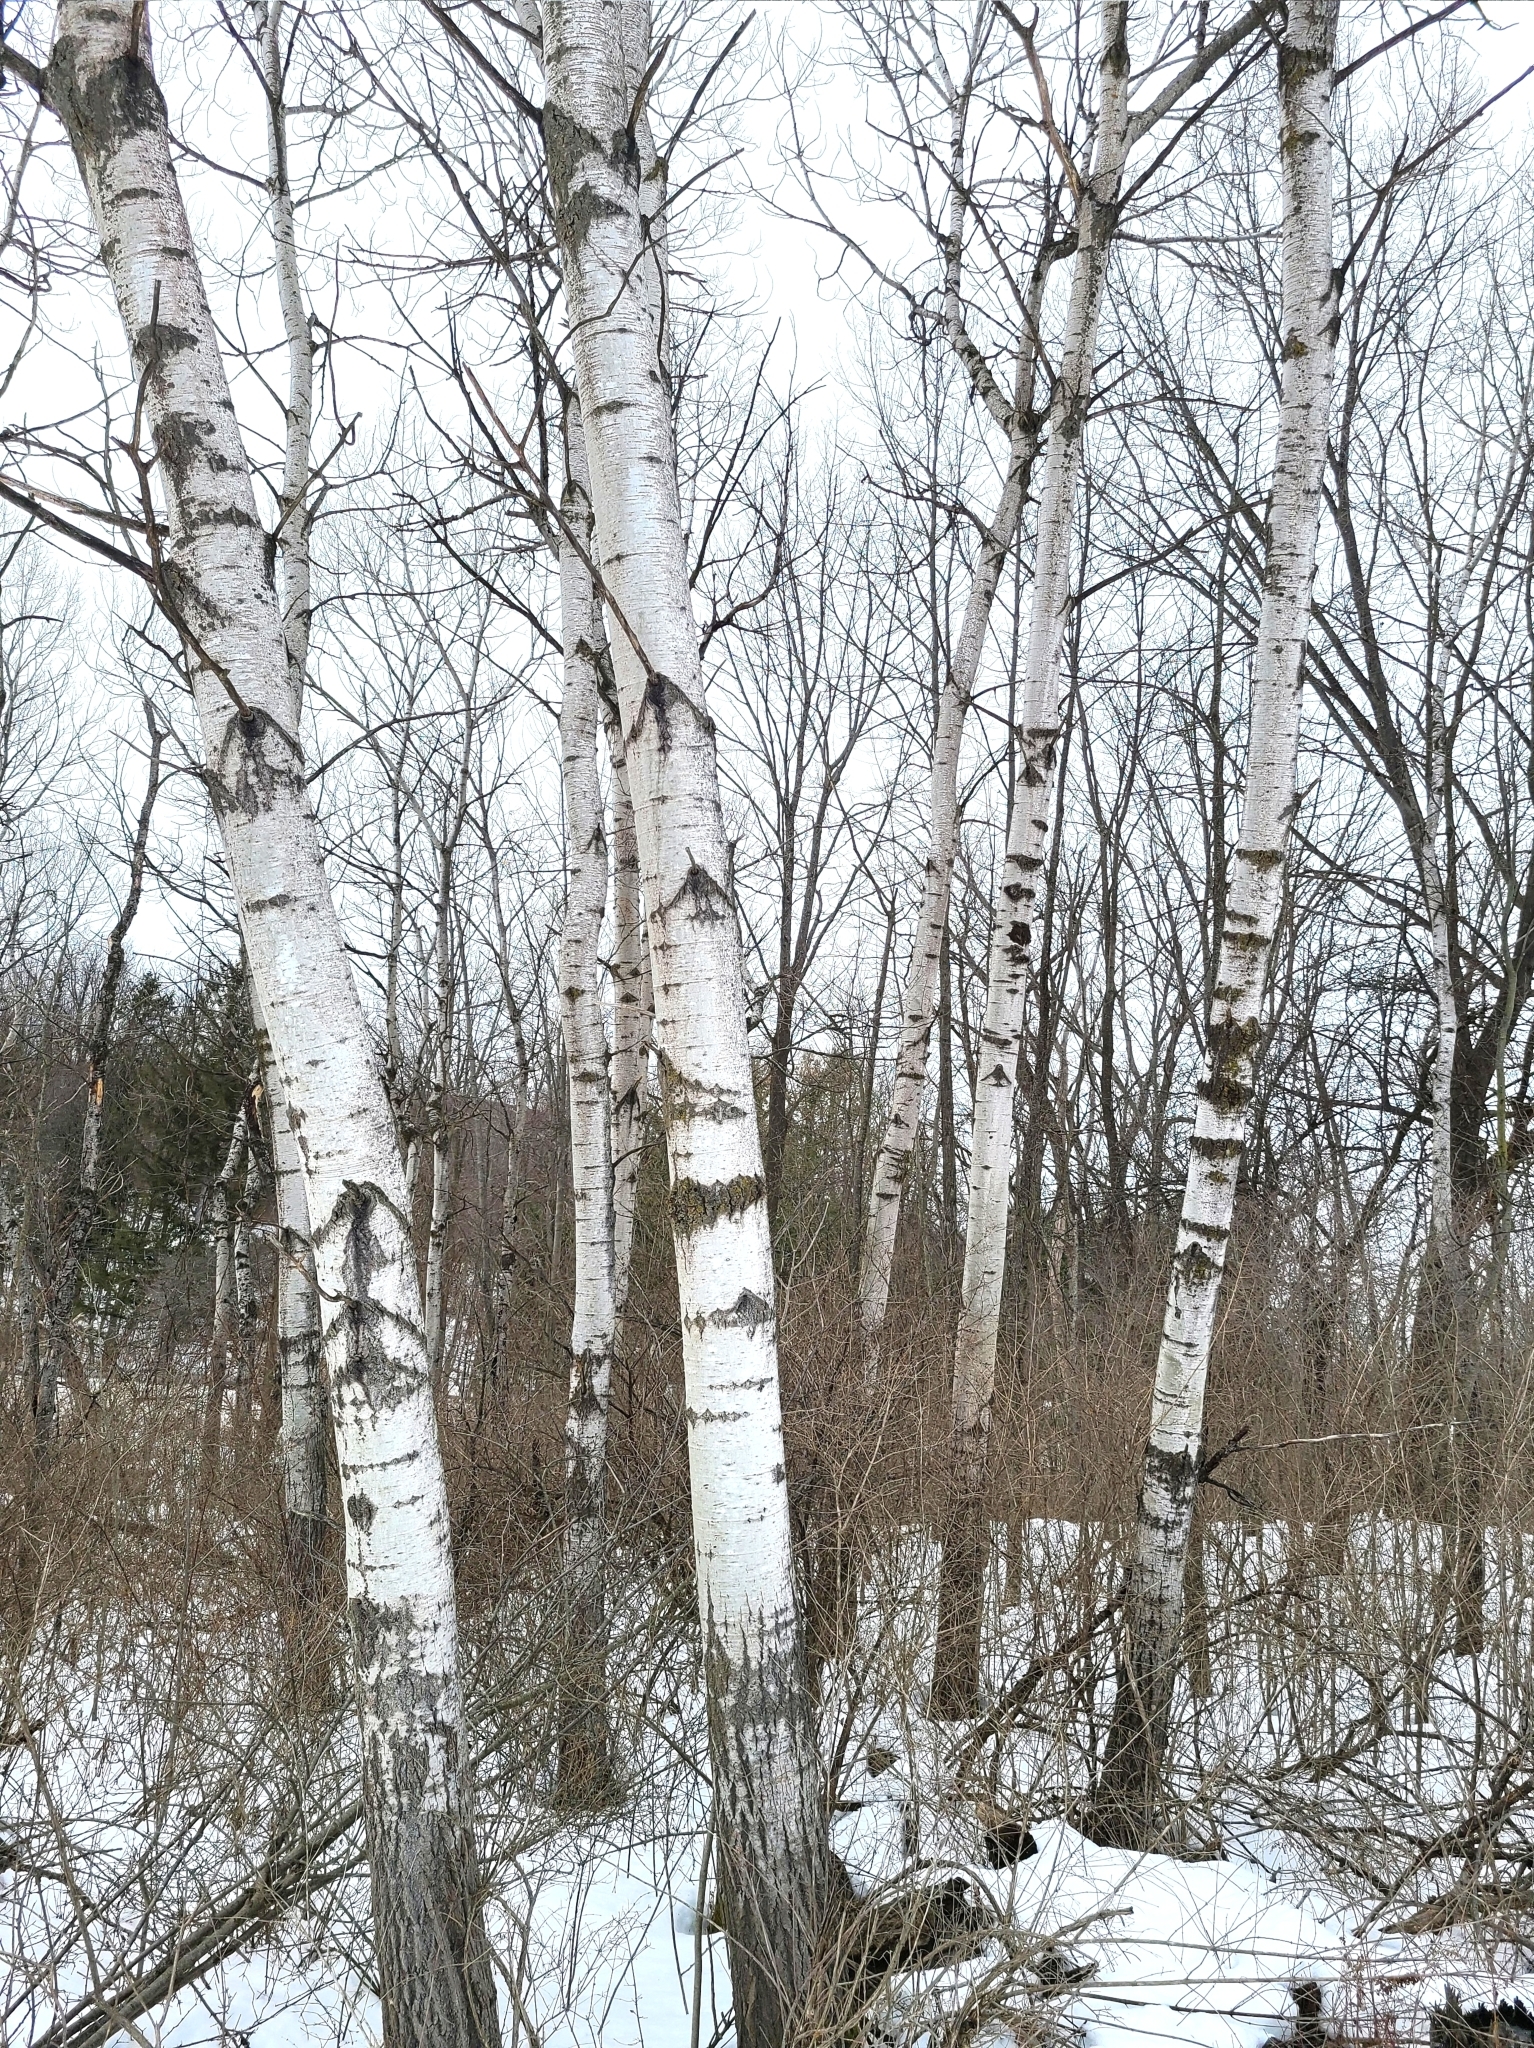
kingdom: Plantae
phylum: Tracheophyta
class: Magnoliopsida
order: Malpighiales
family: Salicaceae
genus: Populus
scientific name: Populus tremuloides
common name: Quaking aspen
